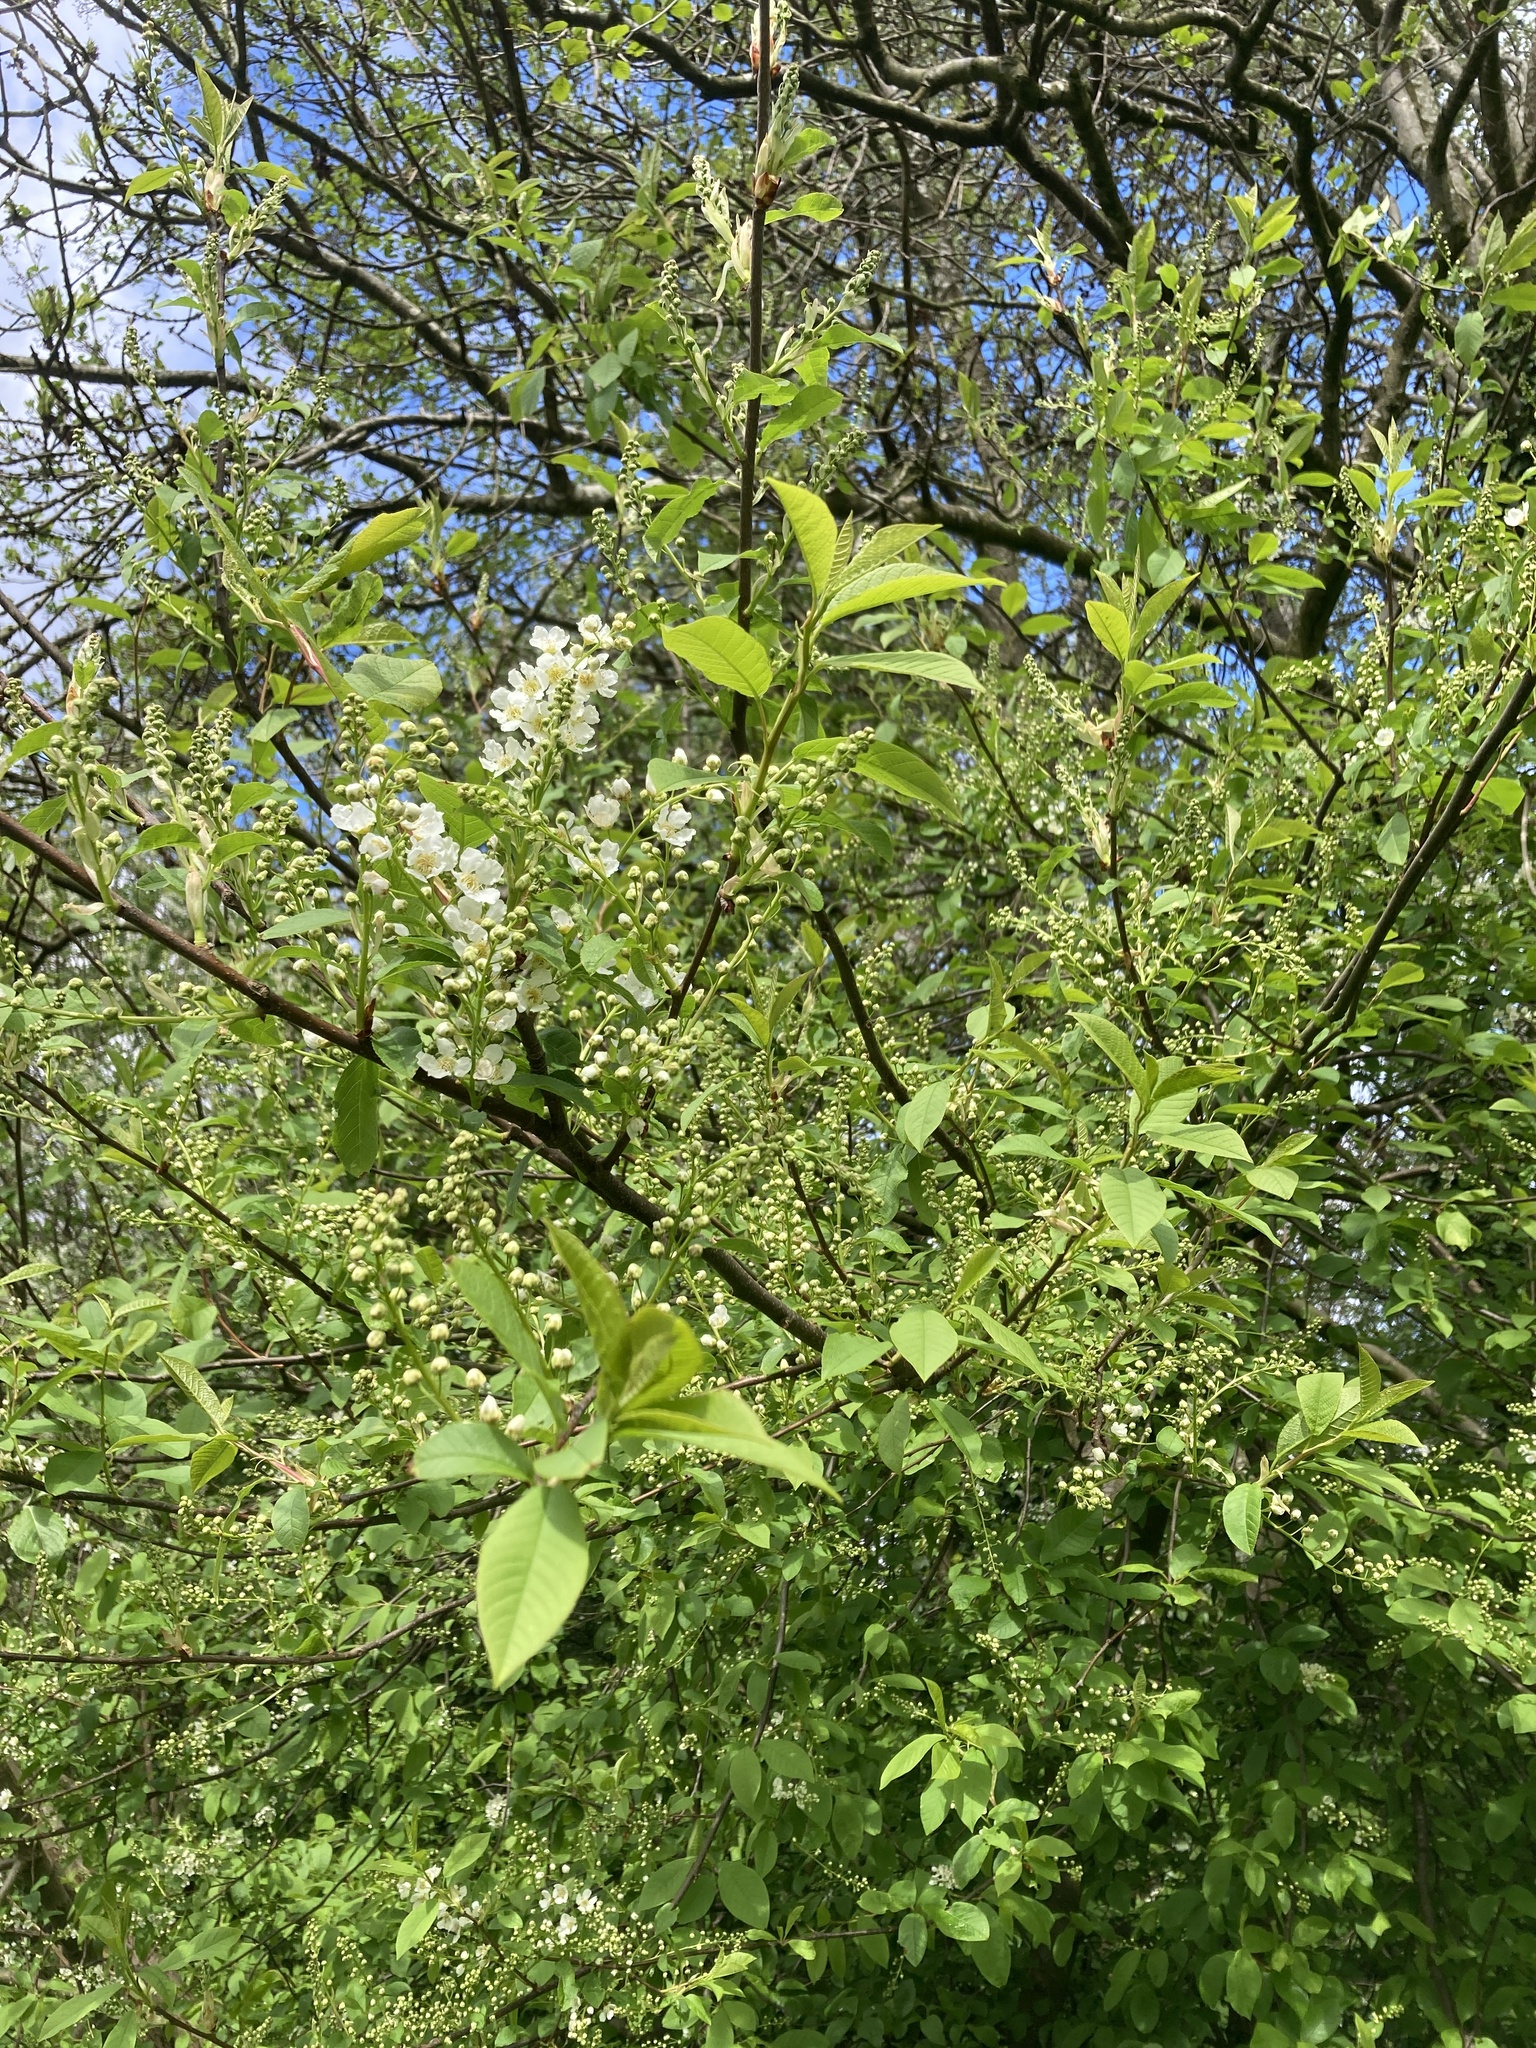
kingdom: Plantae
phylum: Tracheophyta
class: Magnoliopsida
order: Rosales
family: Rosaceae
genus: Prunus
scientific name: Prunus padus
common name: Bird cherry
